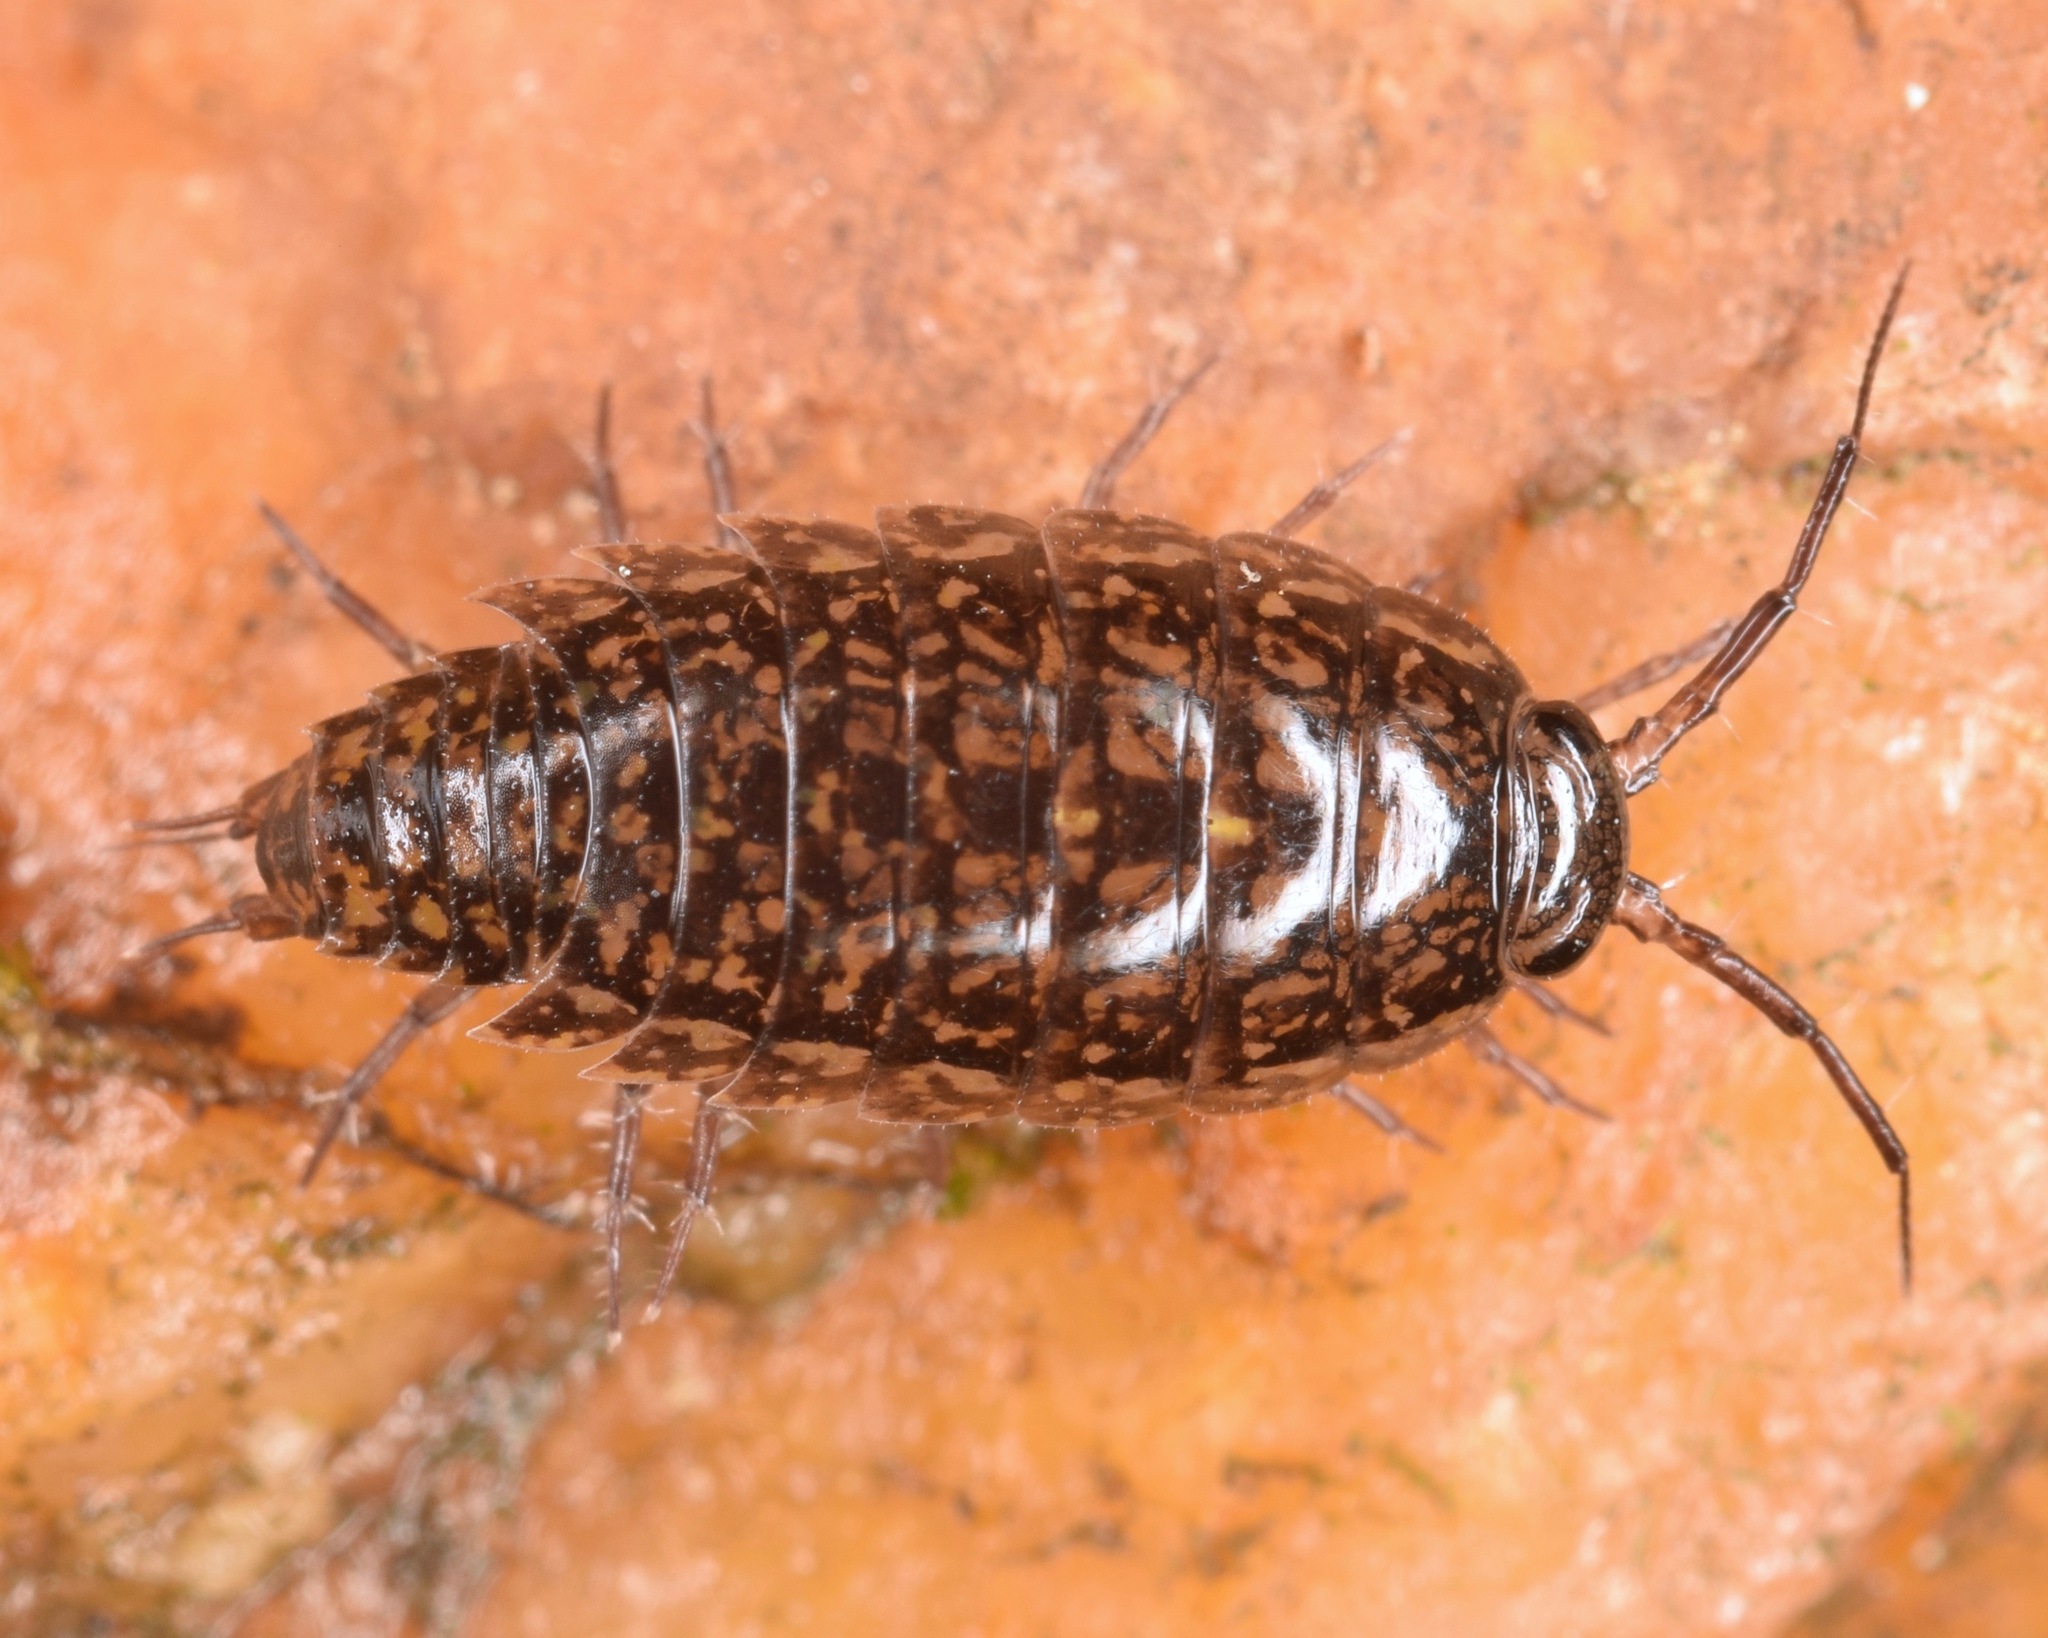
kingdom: Animalia
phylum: Arthropoda
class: Malacostraca
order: Isopoda
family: Ligiidae
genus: Ligidium
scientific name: Ligidium blueridgense
